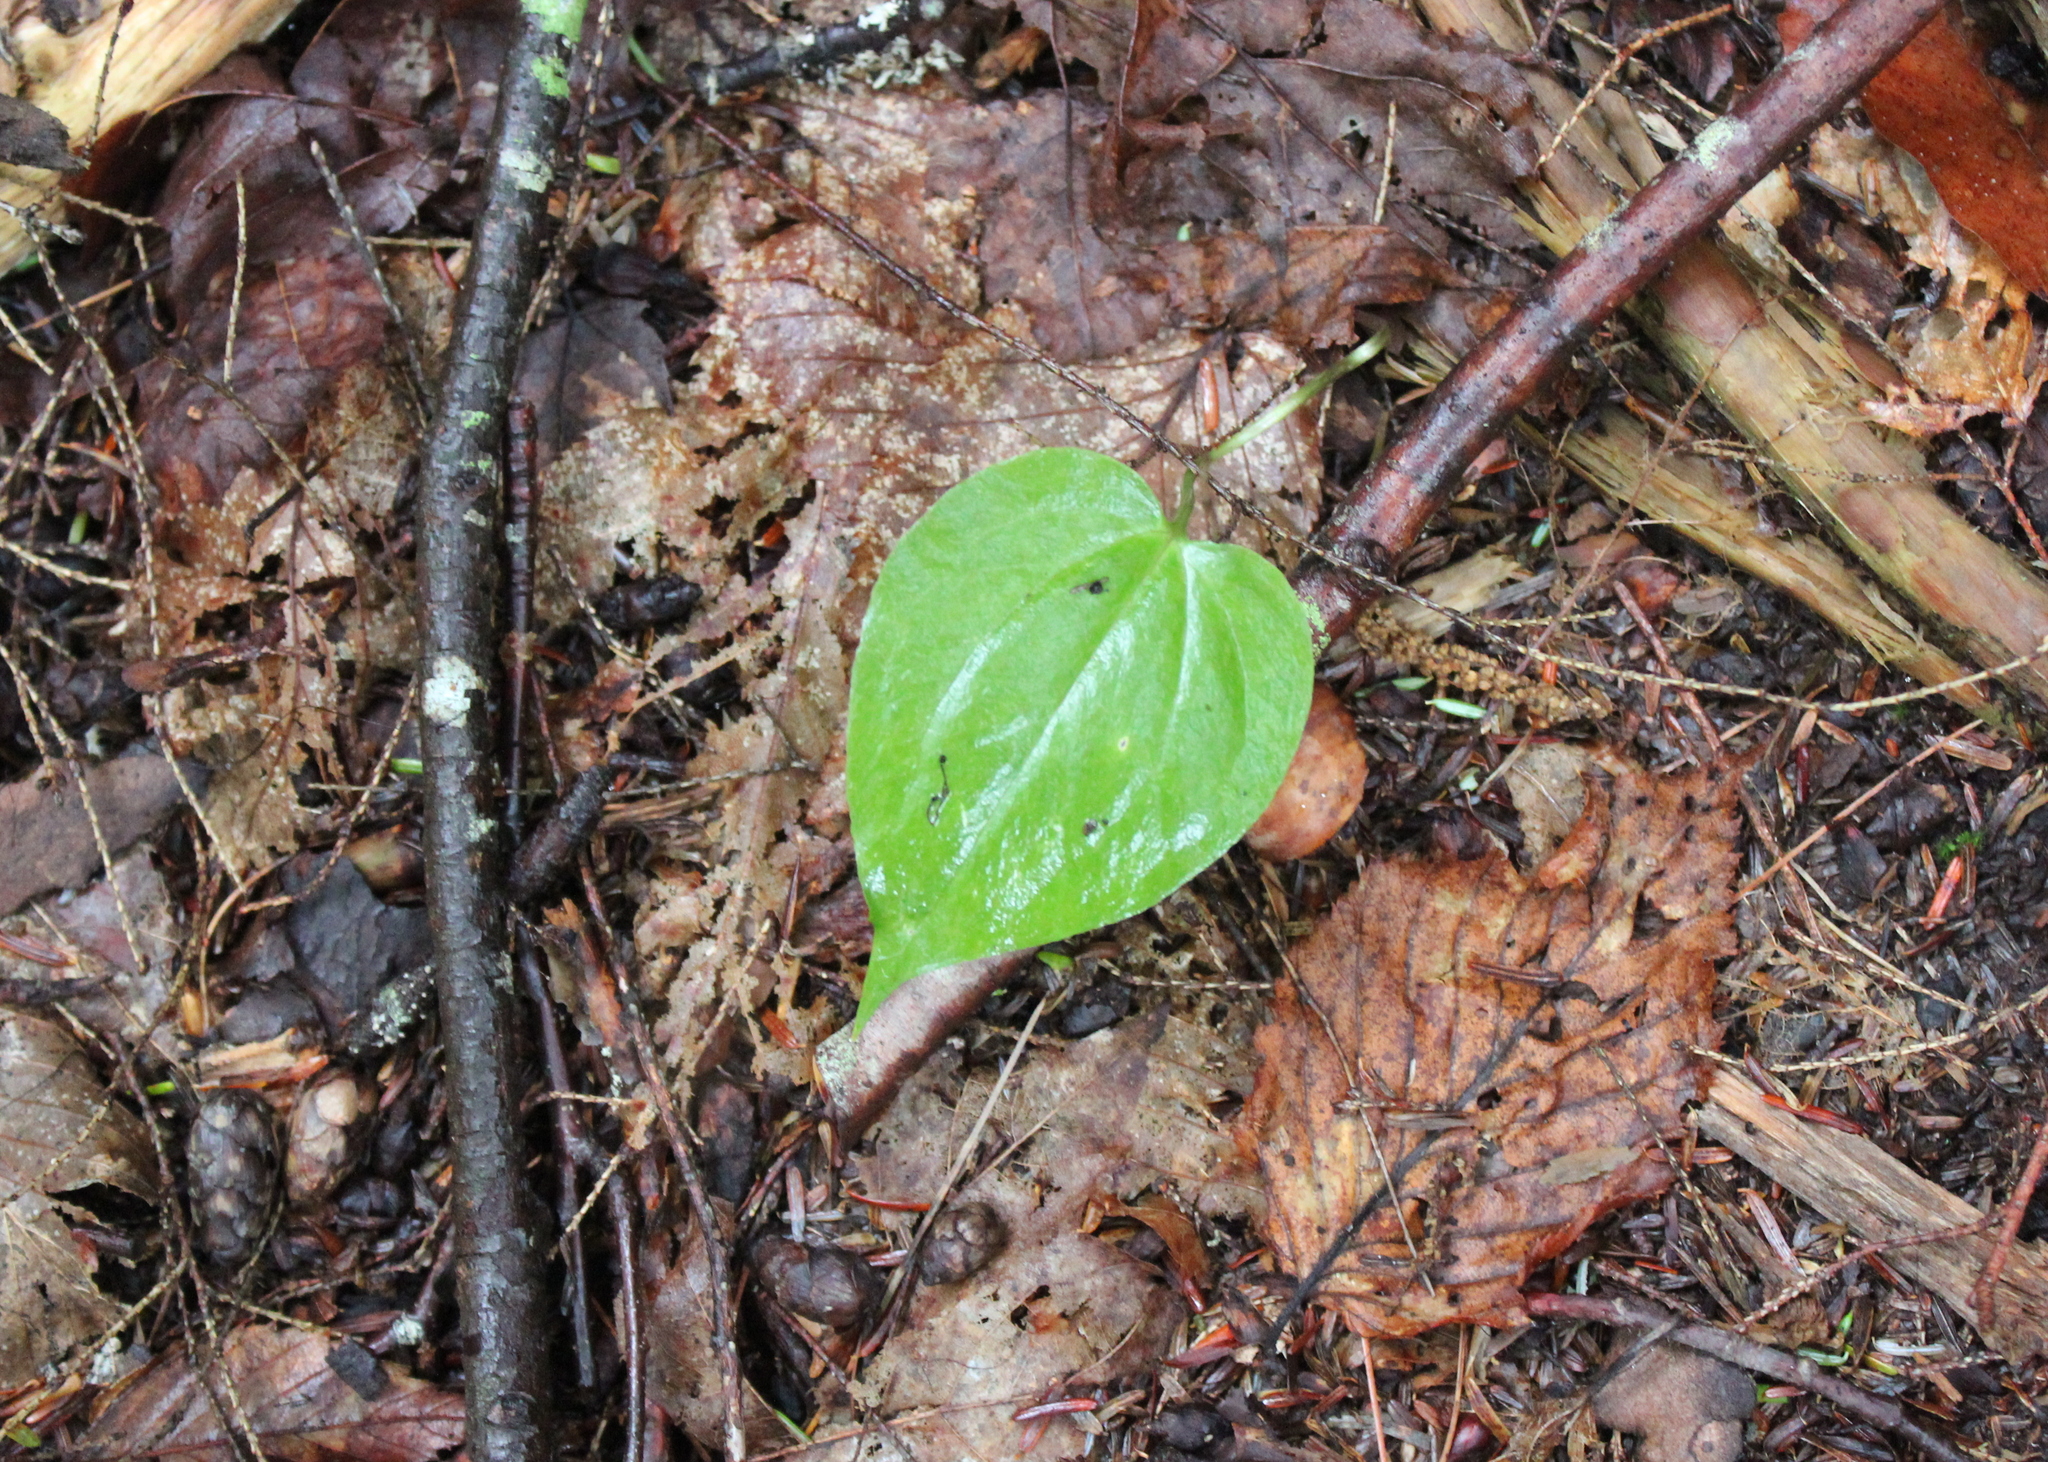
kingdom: Plantae
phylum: Tracheophyta
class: Liliopsida
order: Liliales
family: Melanthiaceae
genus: Trillium
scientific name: Trillium undulatum
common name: Paint trillium
